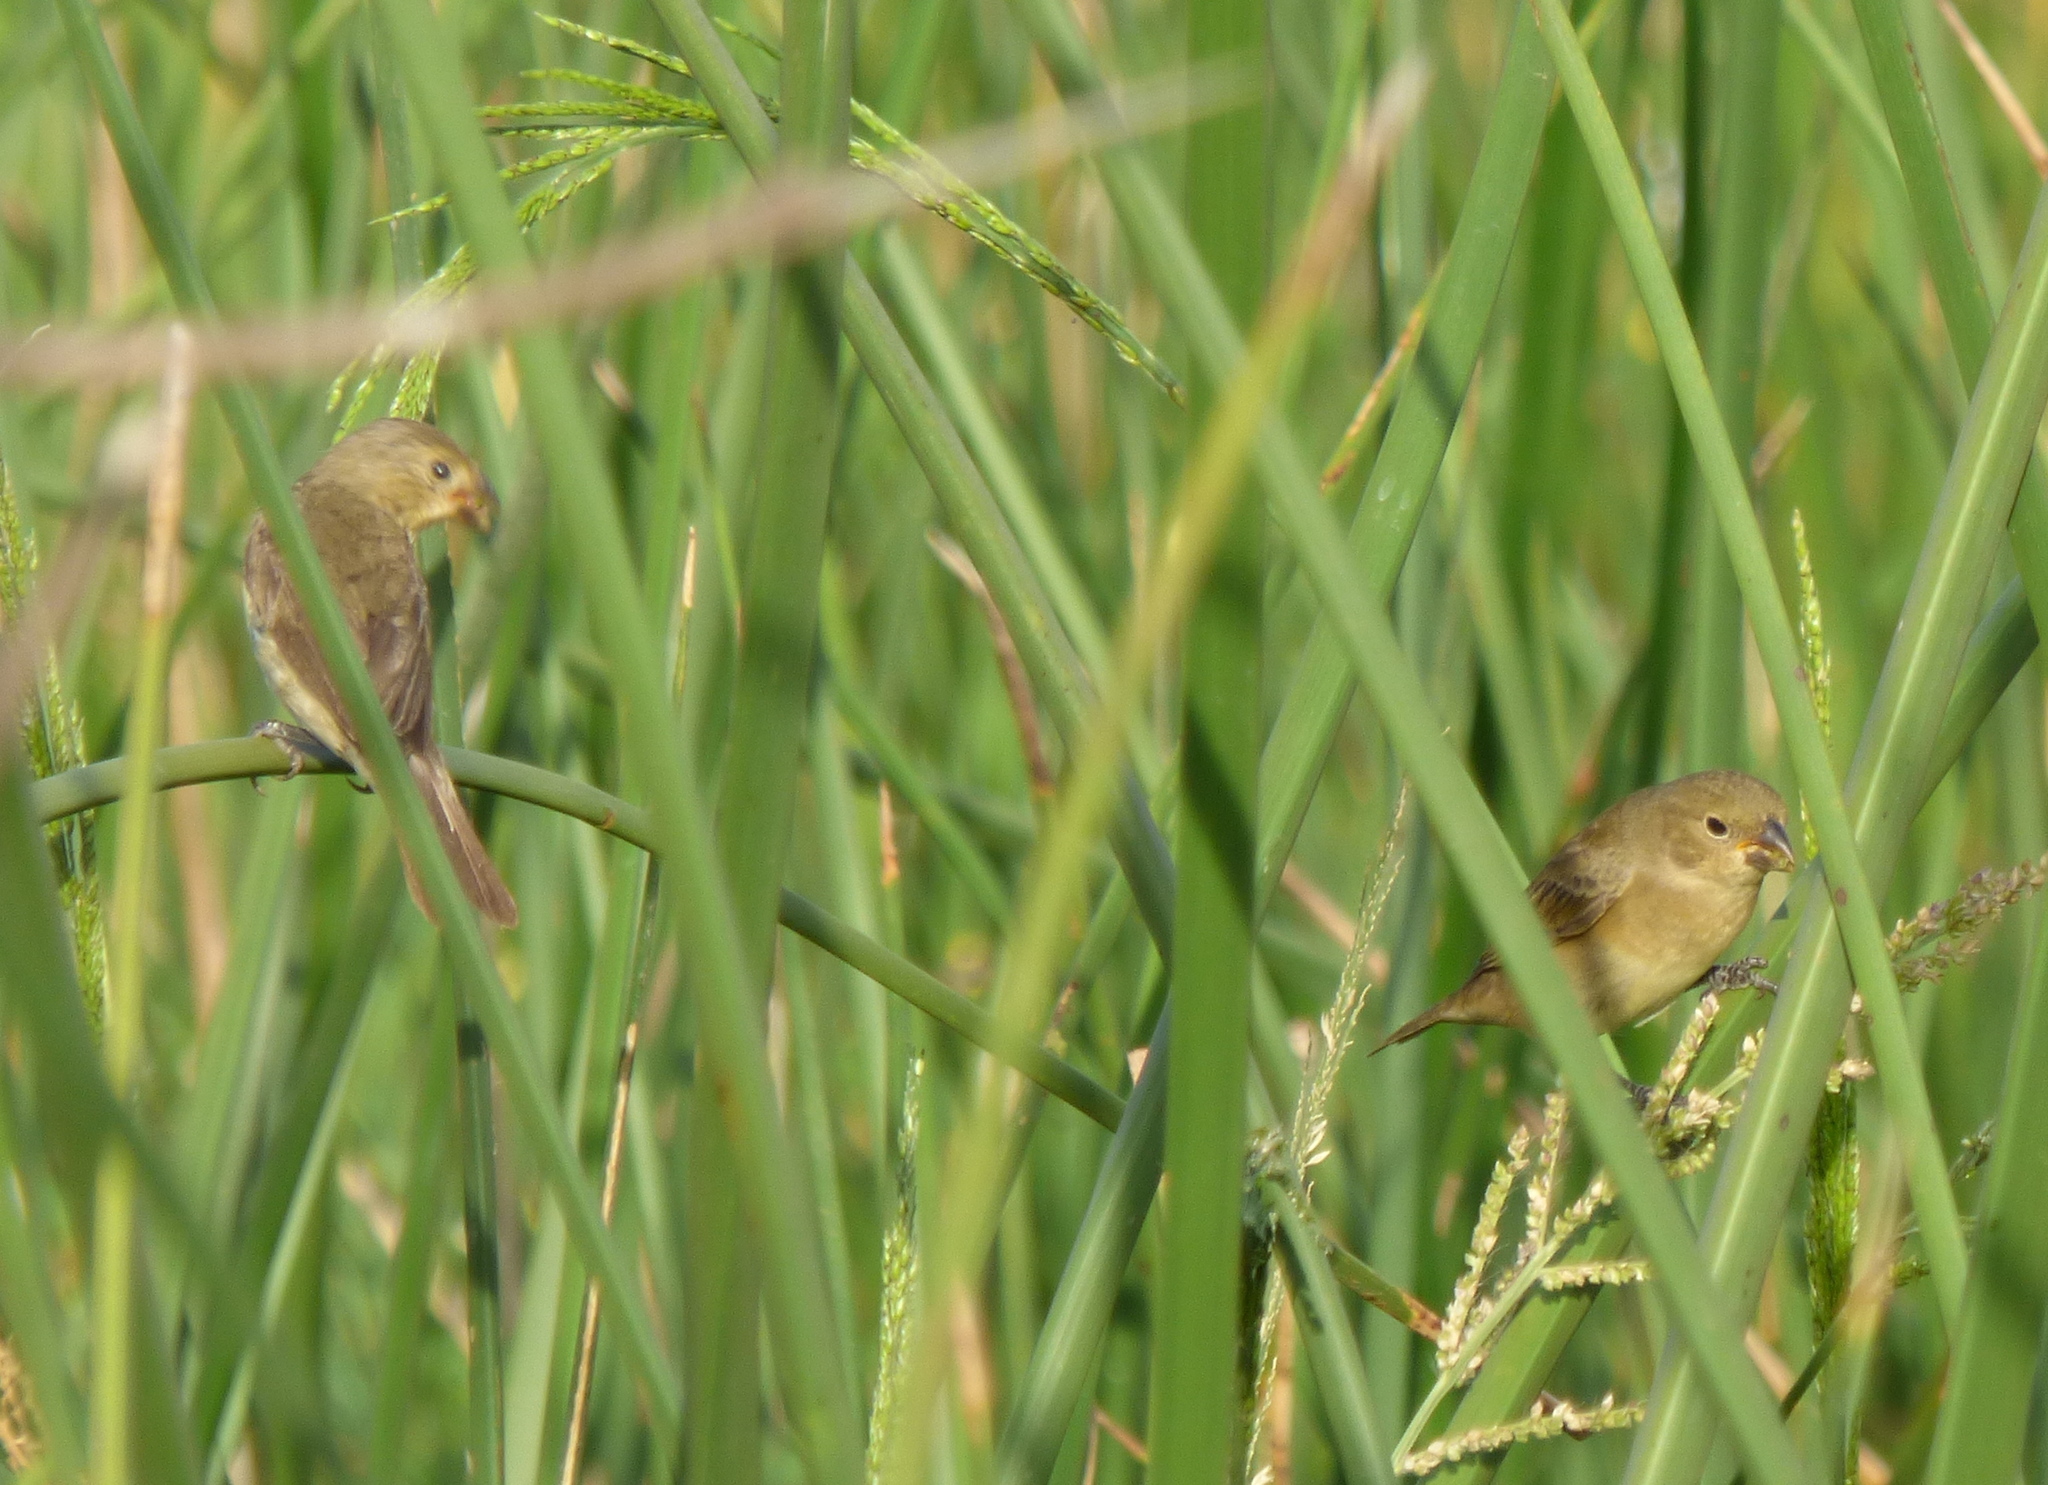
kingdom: Animalia
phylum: Chordata
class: Aves
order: Passeriformes
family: Thraupidae
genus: Sporophila
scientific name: Sporophila caerulescens
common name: Double-collared seedeater
